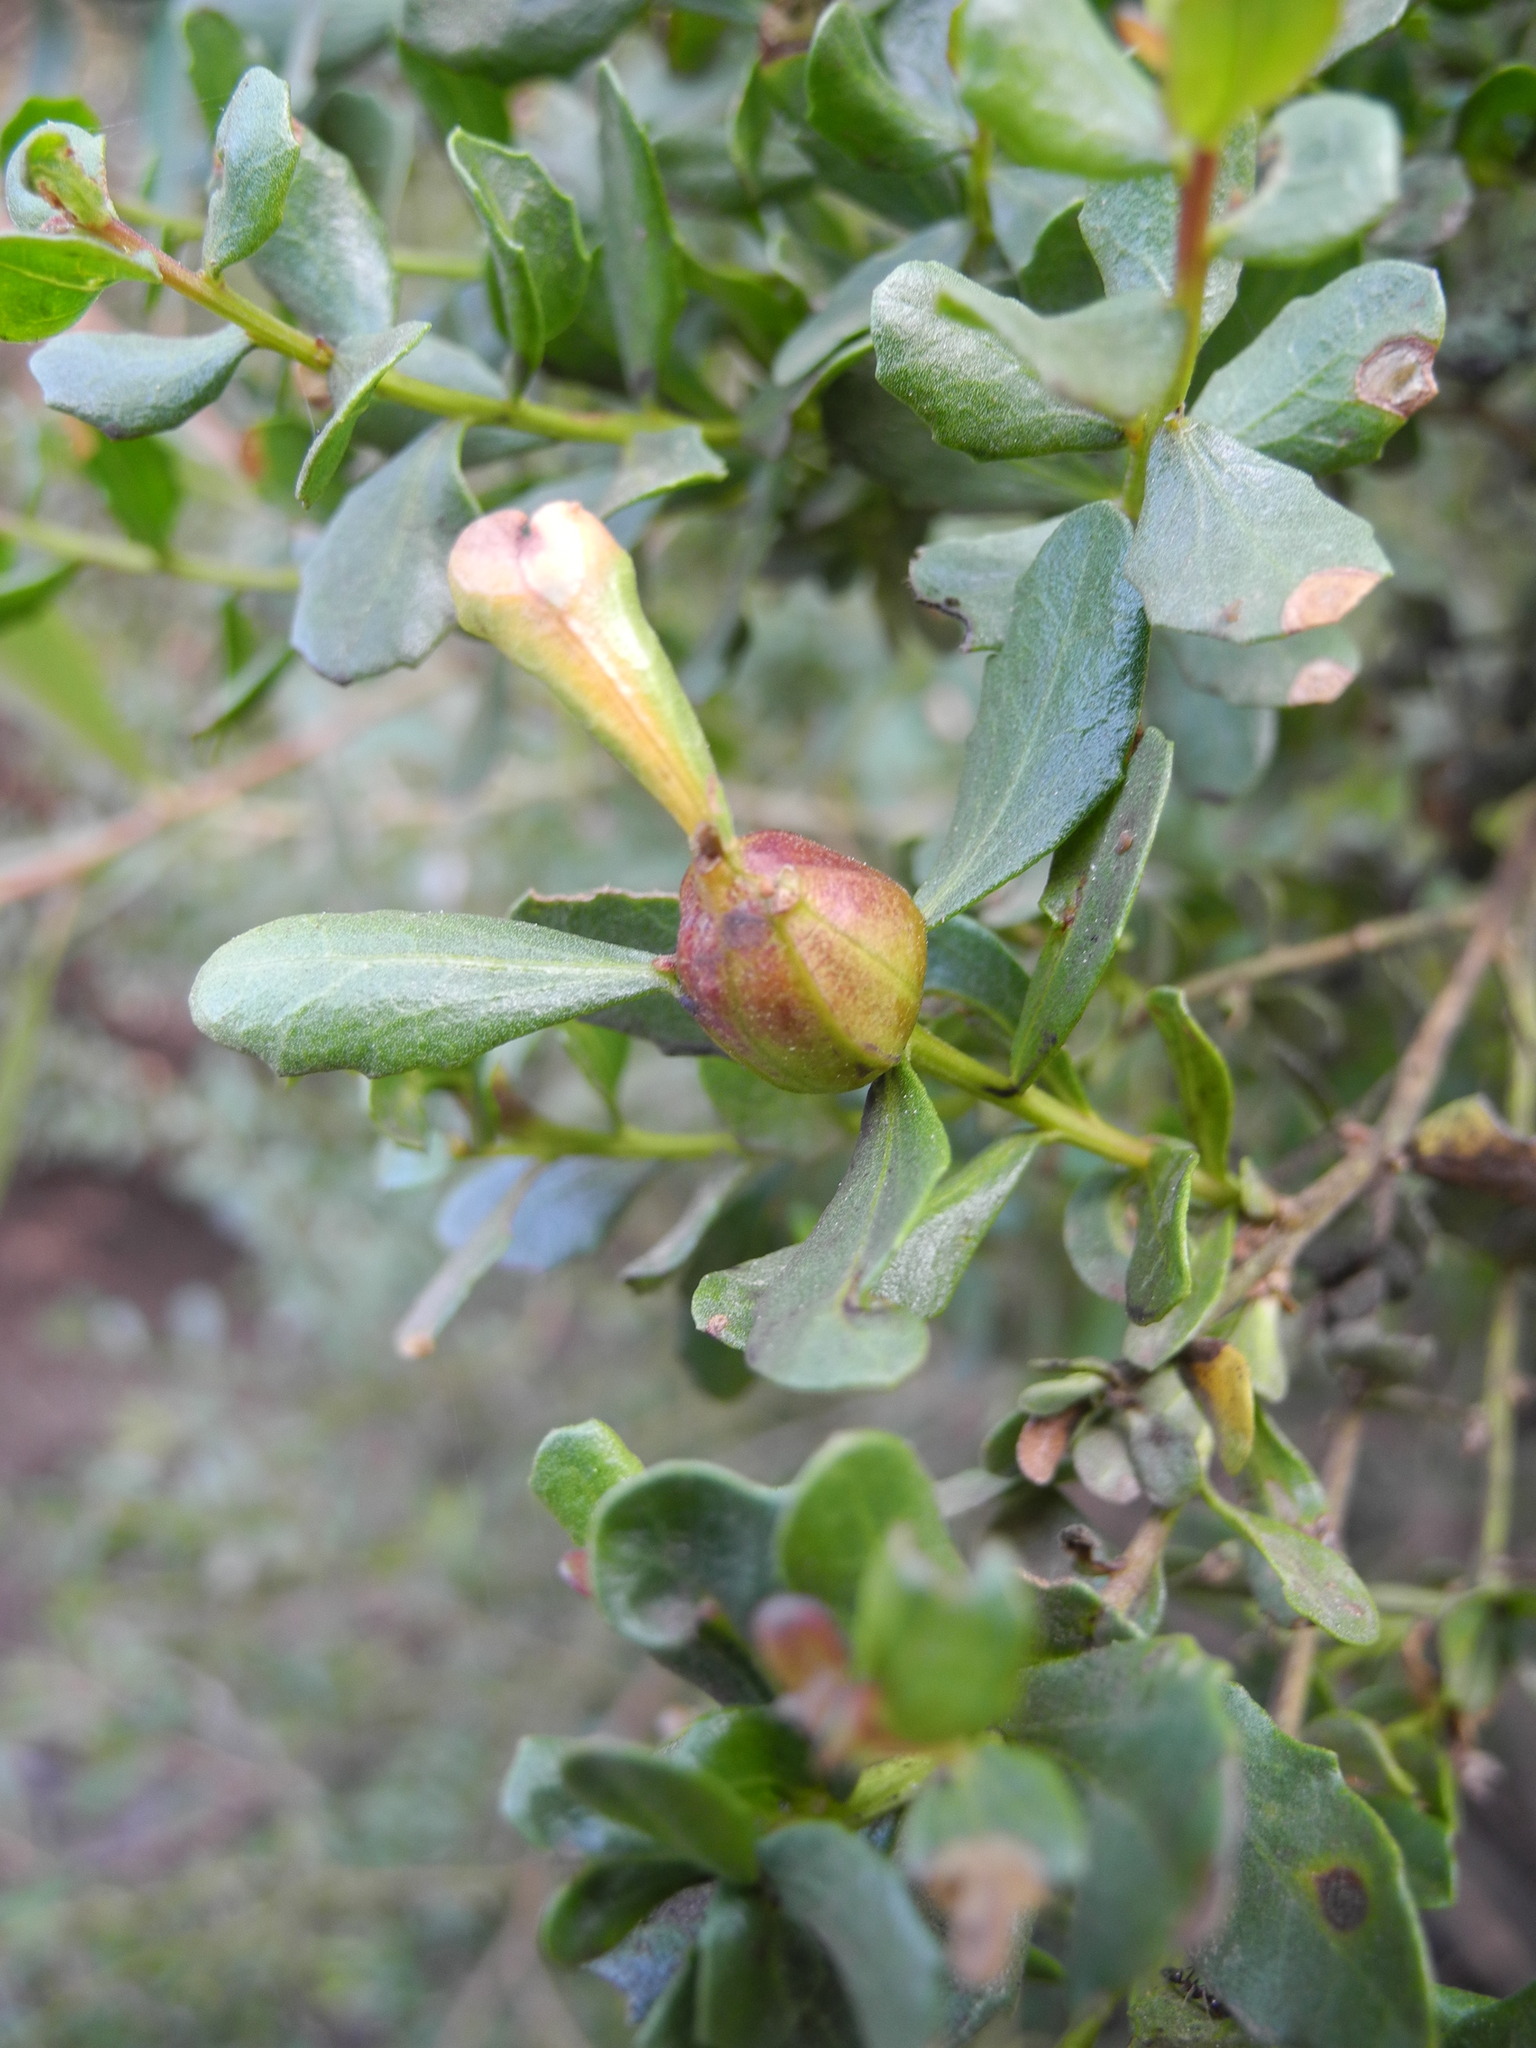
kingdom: Animalia
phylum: Arthropoda
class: Insecta
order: Lepidoptera
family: Gelechiidae
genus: Gnorimoschema
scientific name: Gnorimoschema baccharisella
